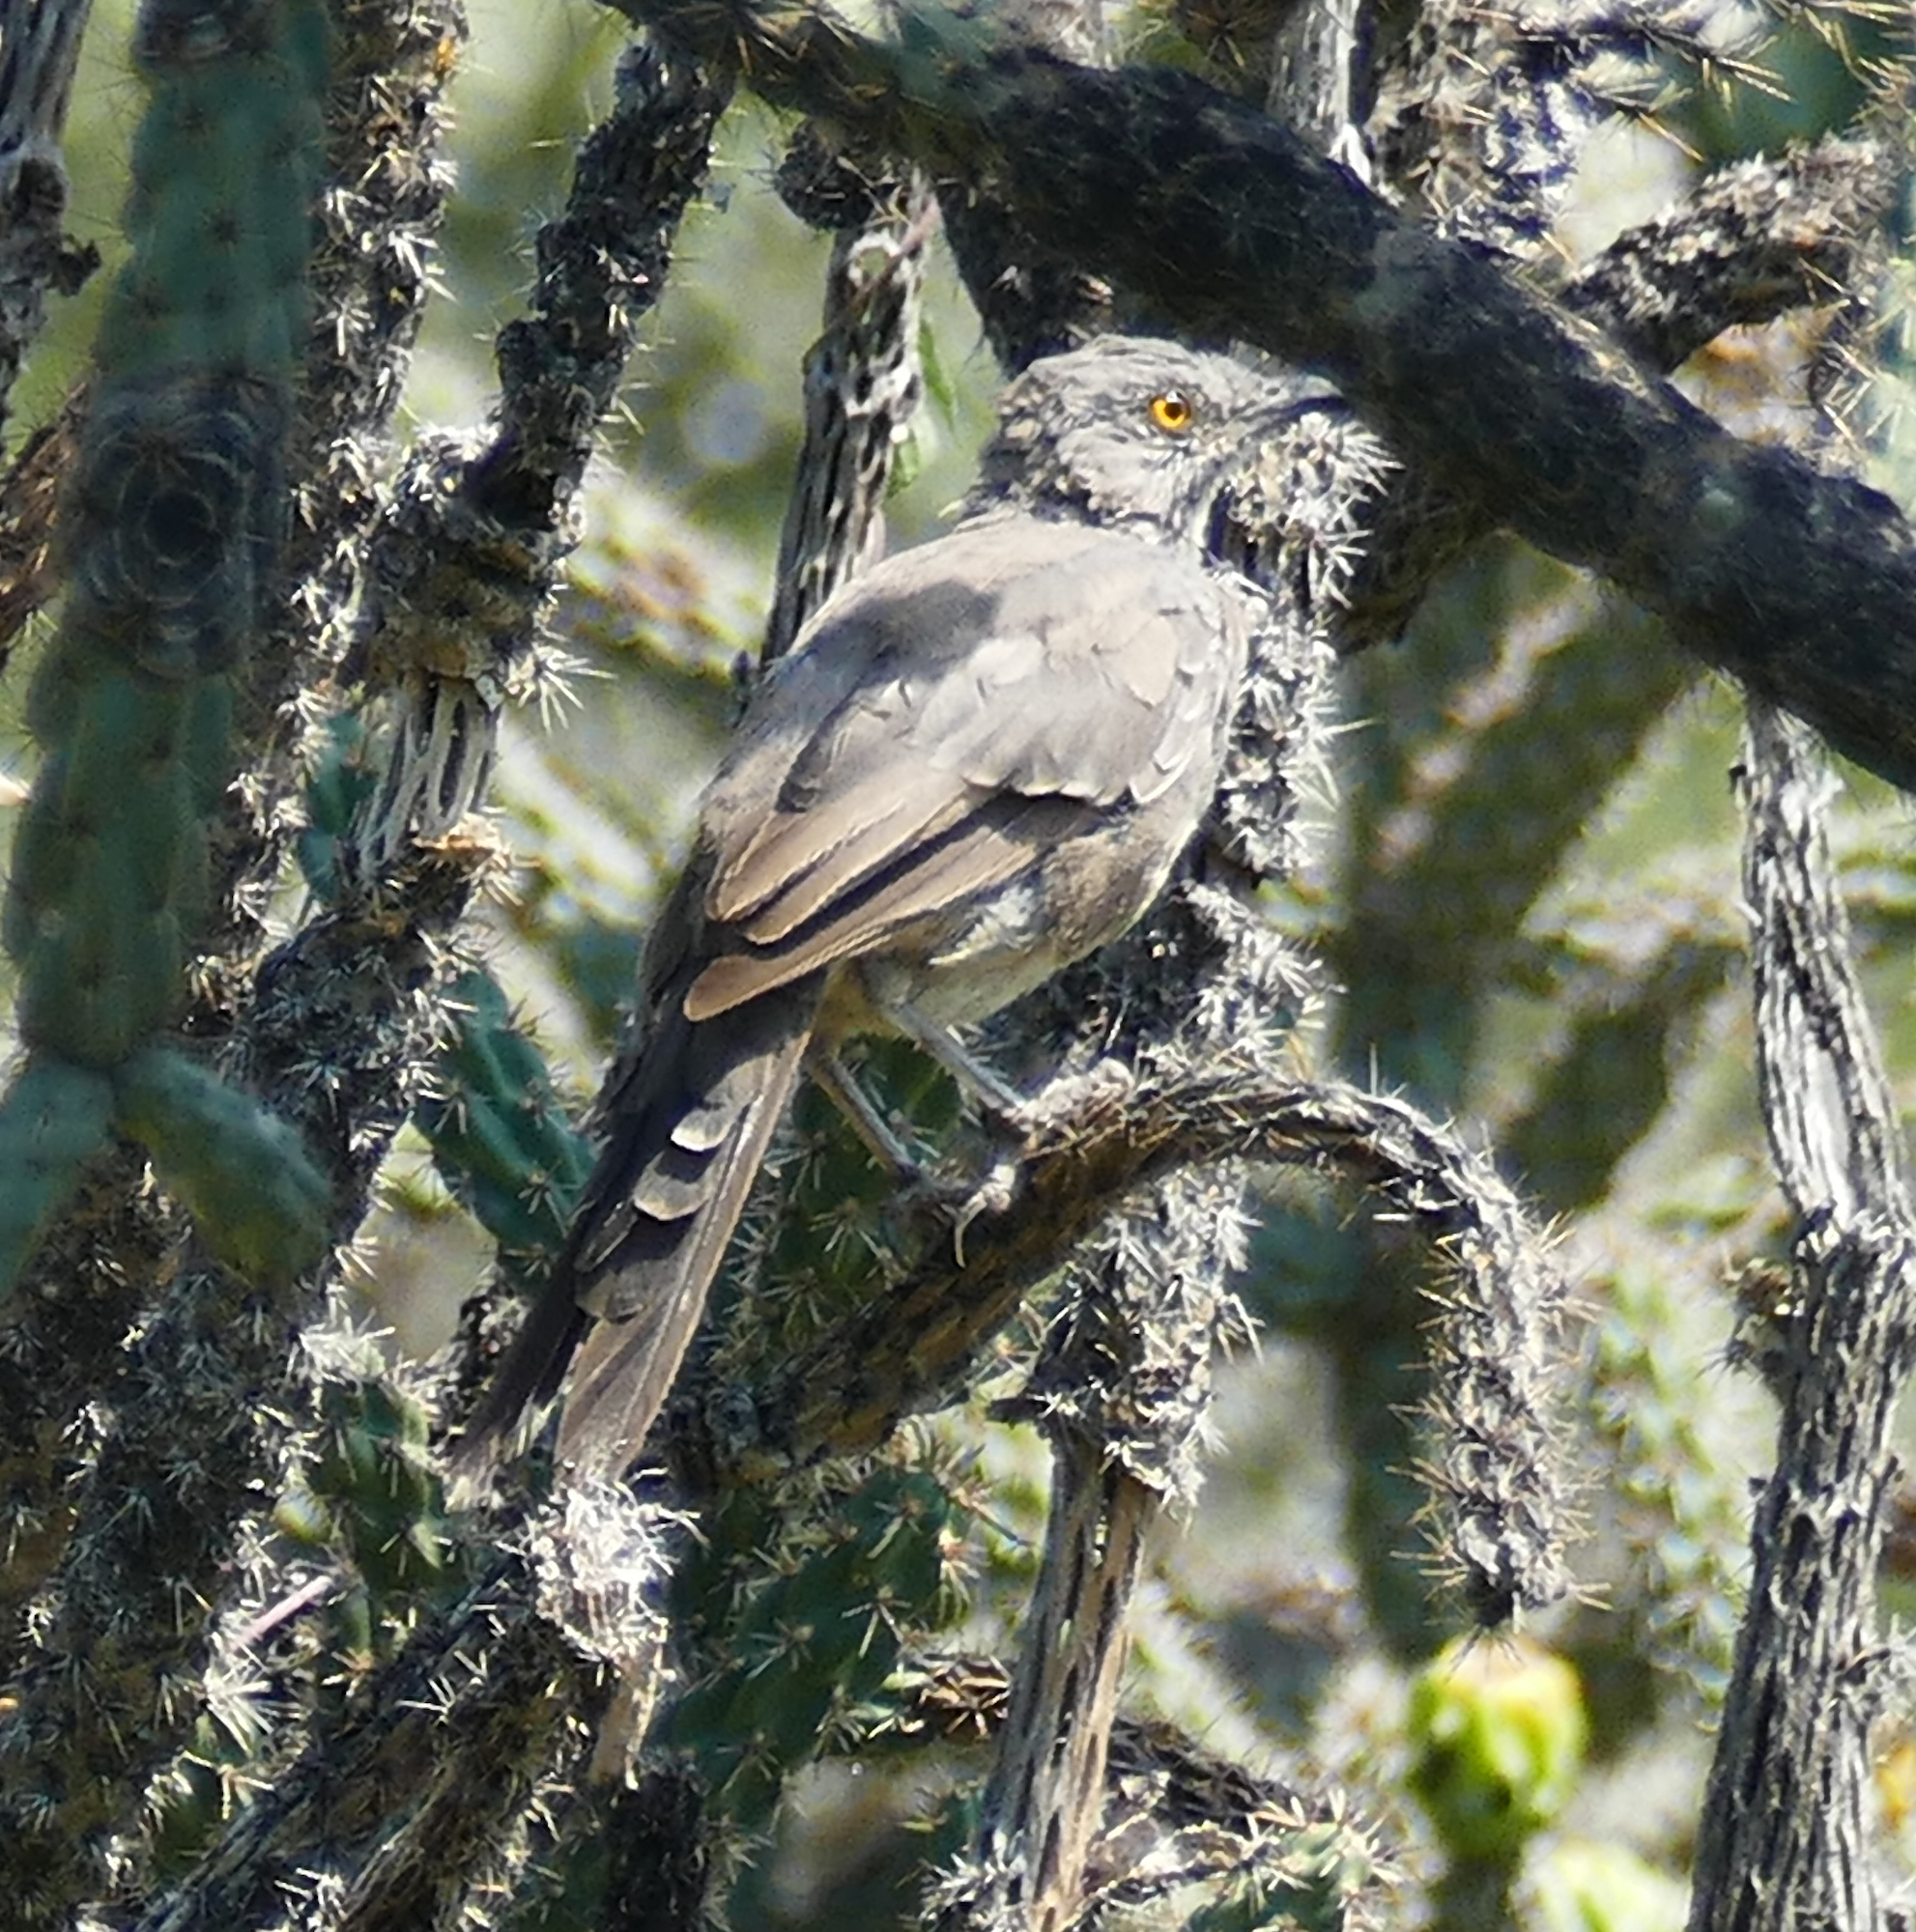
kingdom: Animalia
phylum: Chordata
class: Aves
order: Passeriformes
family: Mimidae
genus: Toxostoma
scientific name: Toxostoma curvirostre
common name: Curve-billed thrasher
